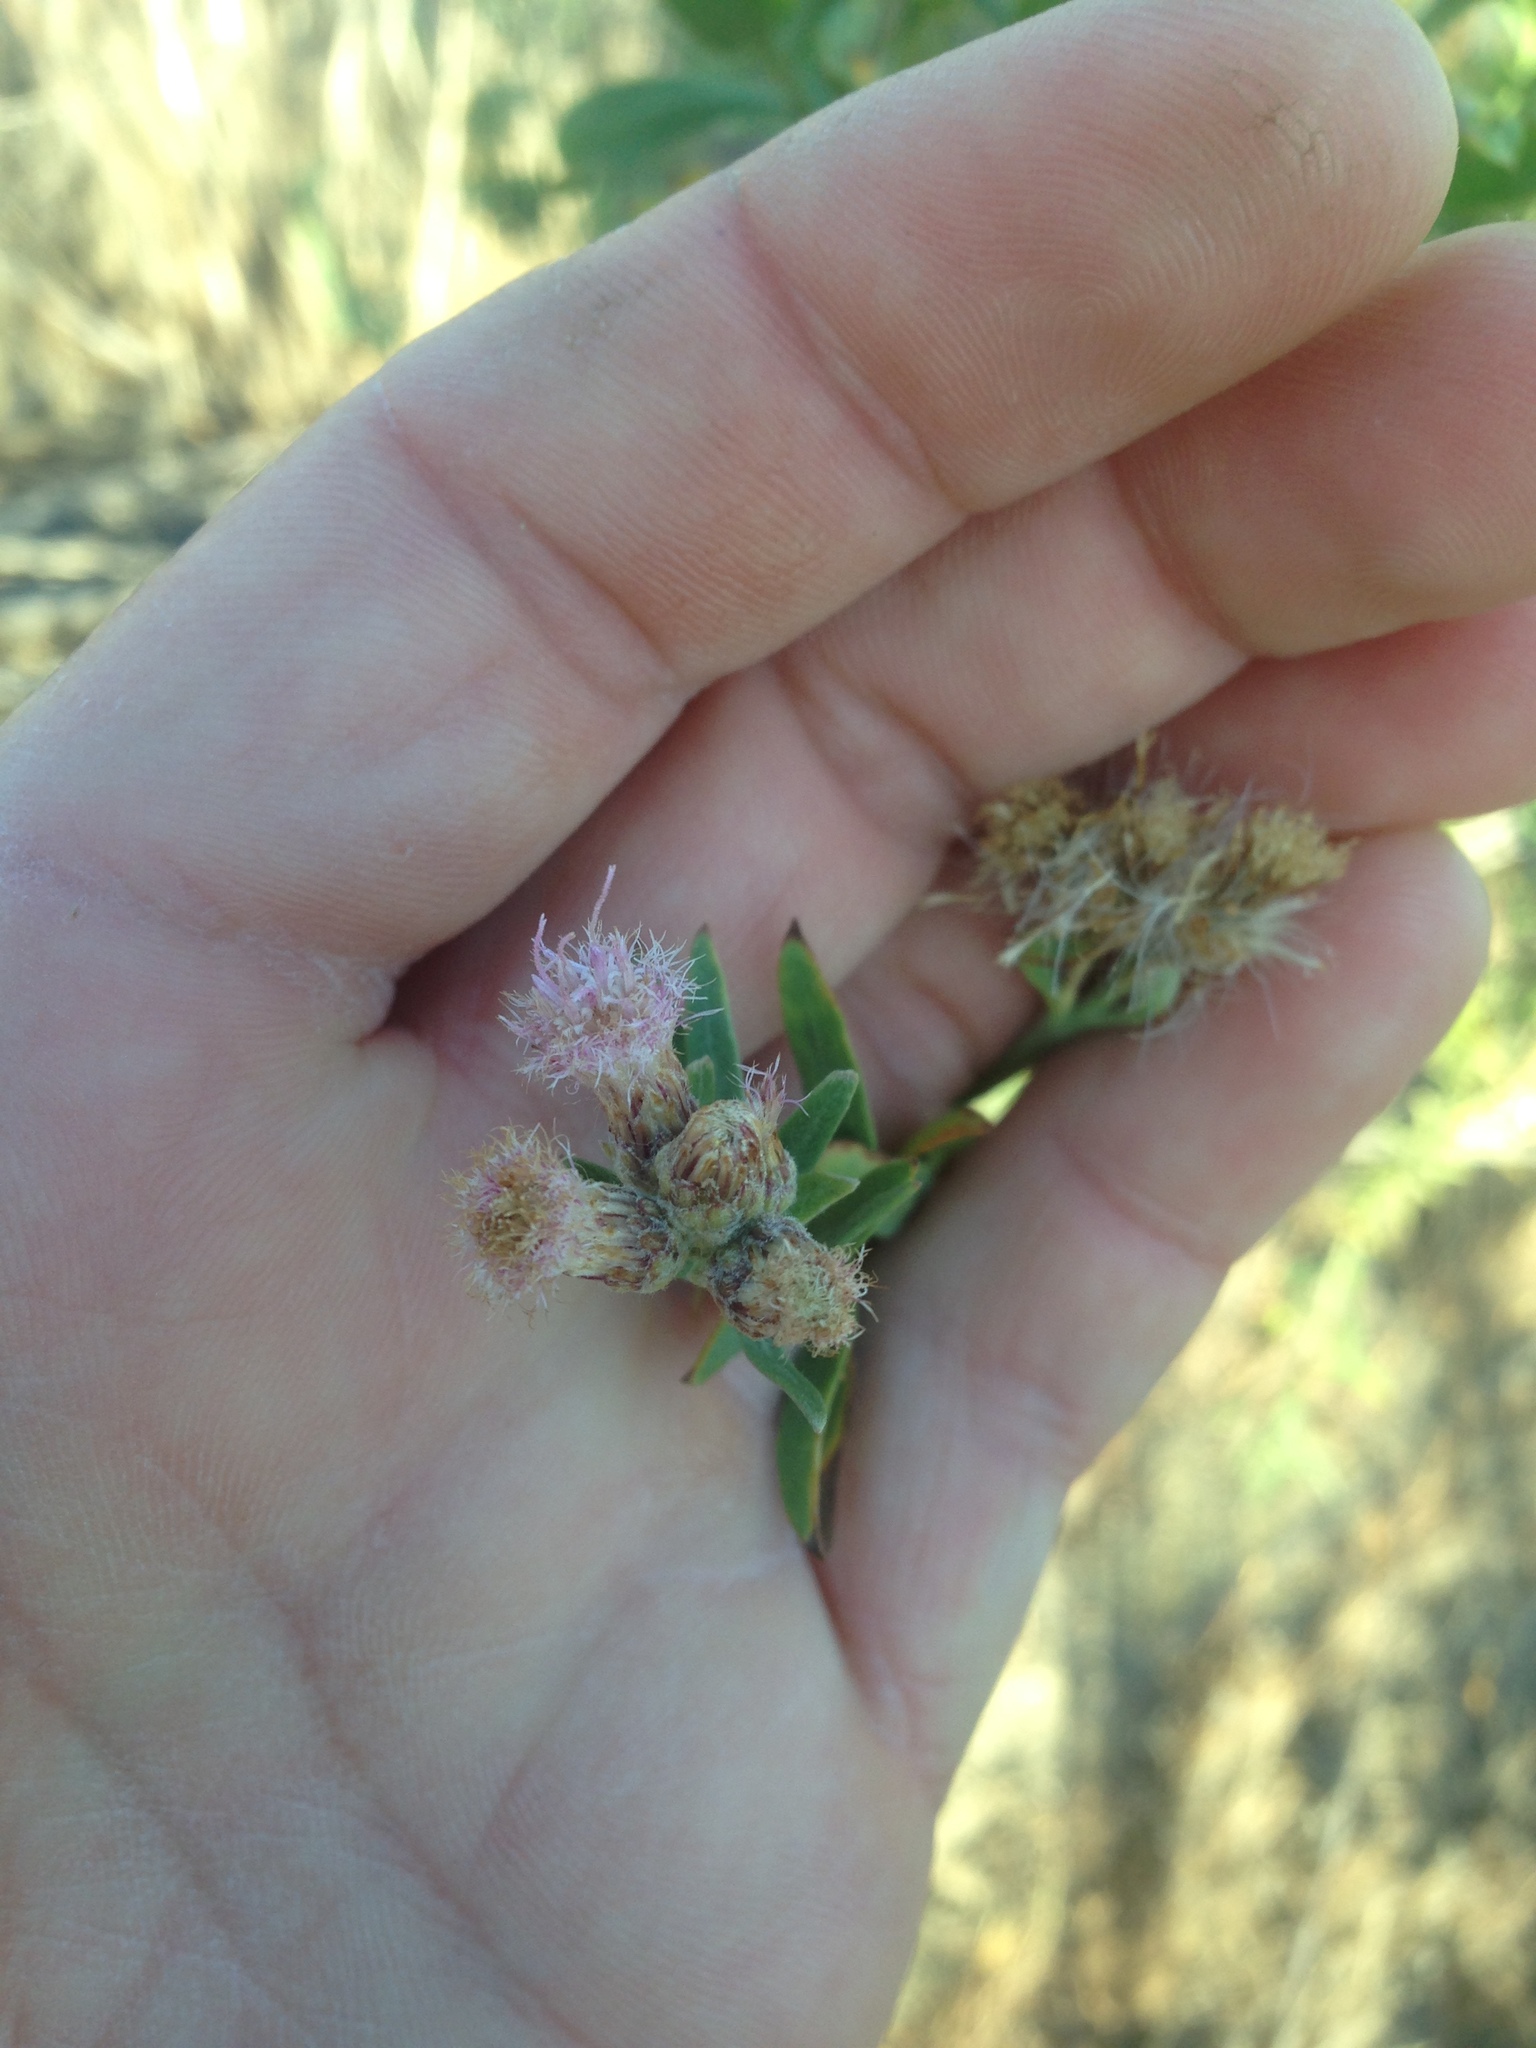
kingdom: Plantae
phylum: Tracheophyta
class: Magnoliopsida
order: Asterales
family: Asteraceae
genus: Pluchea
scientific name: Pluchea sericea
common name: Arrow-weed
